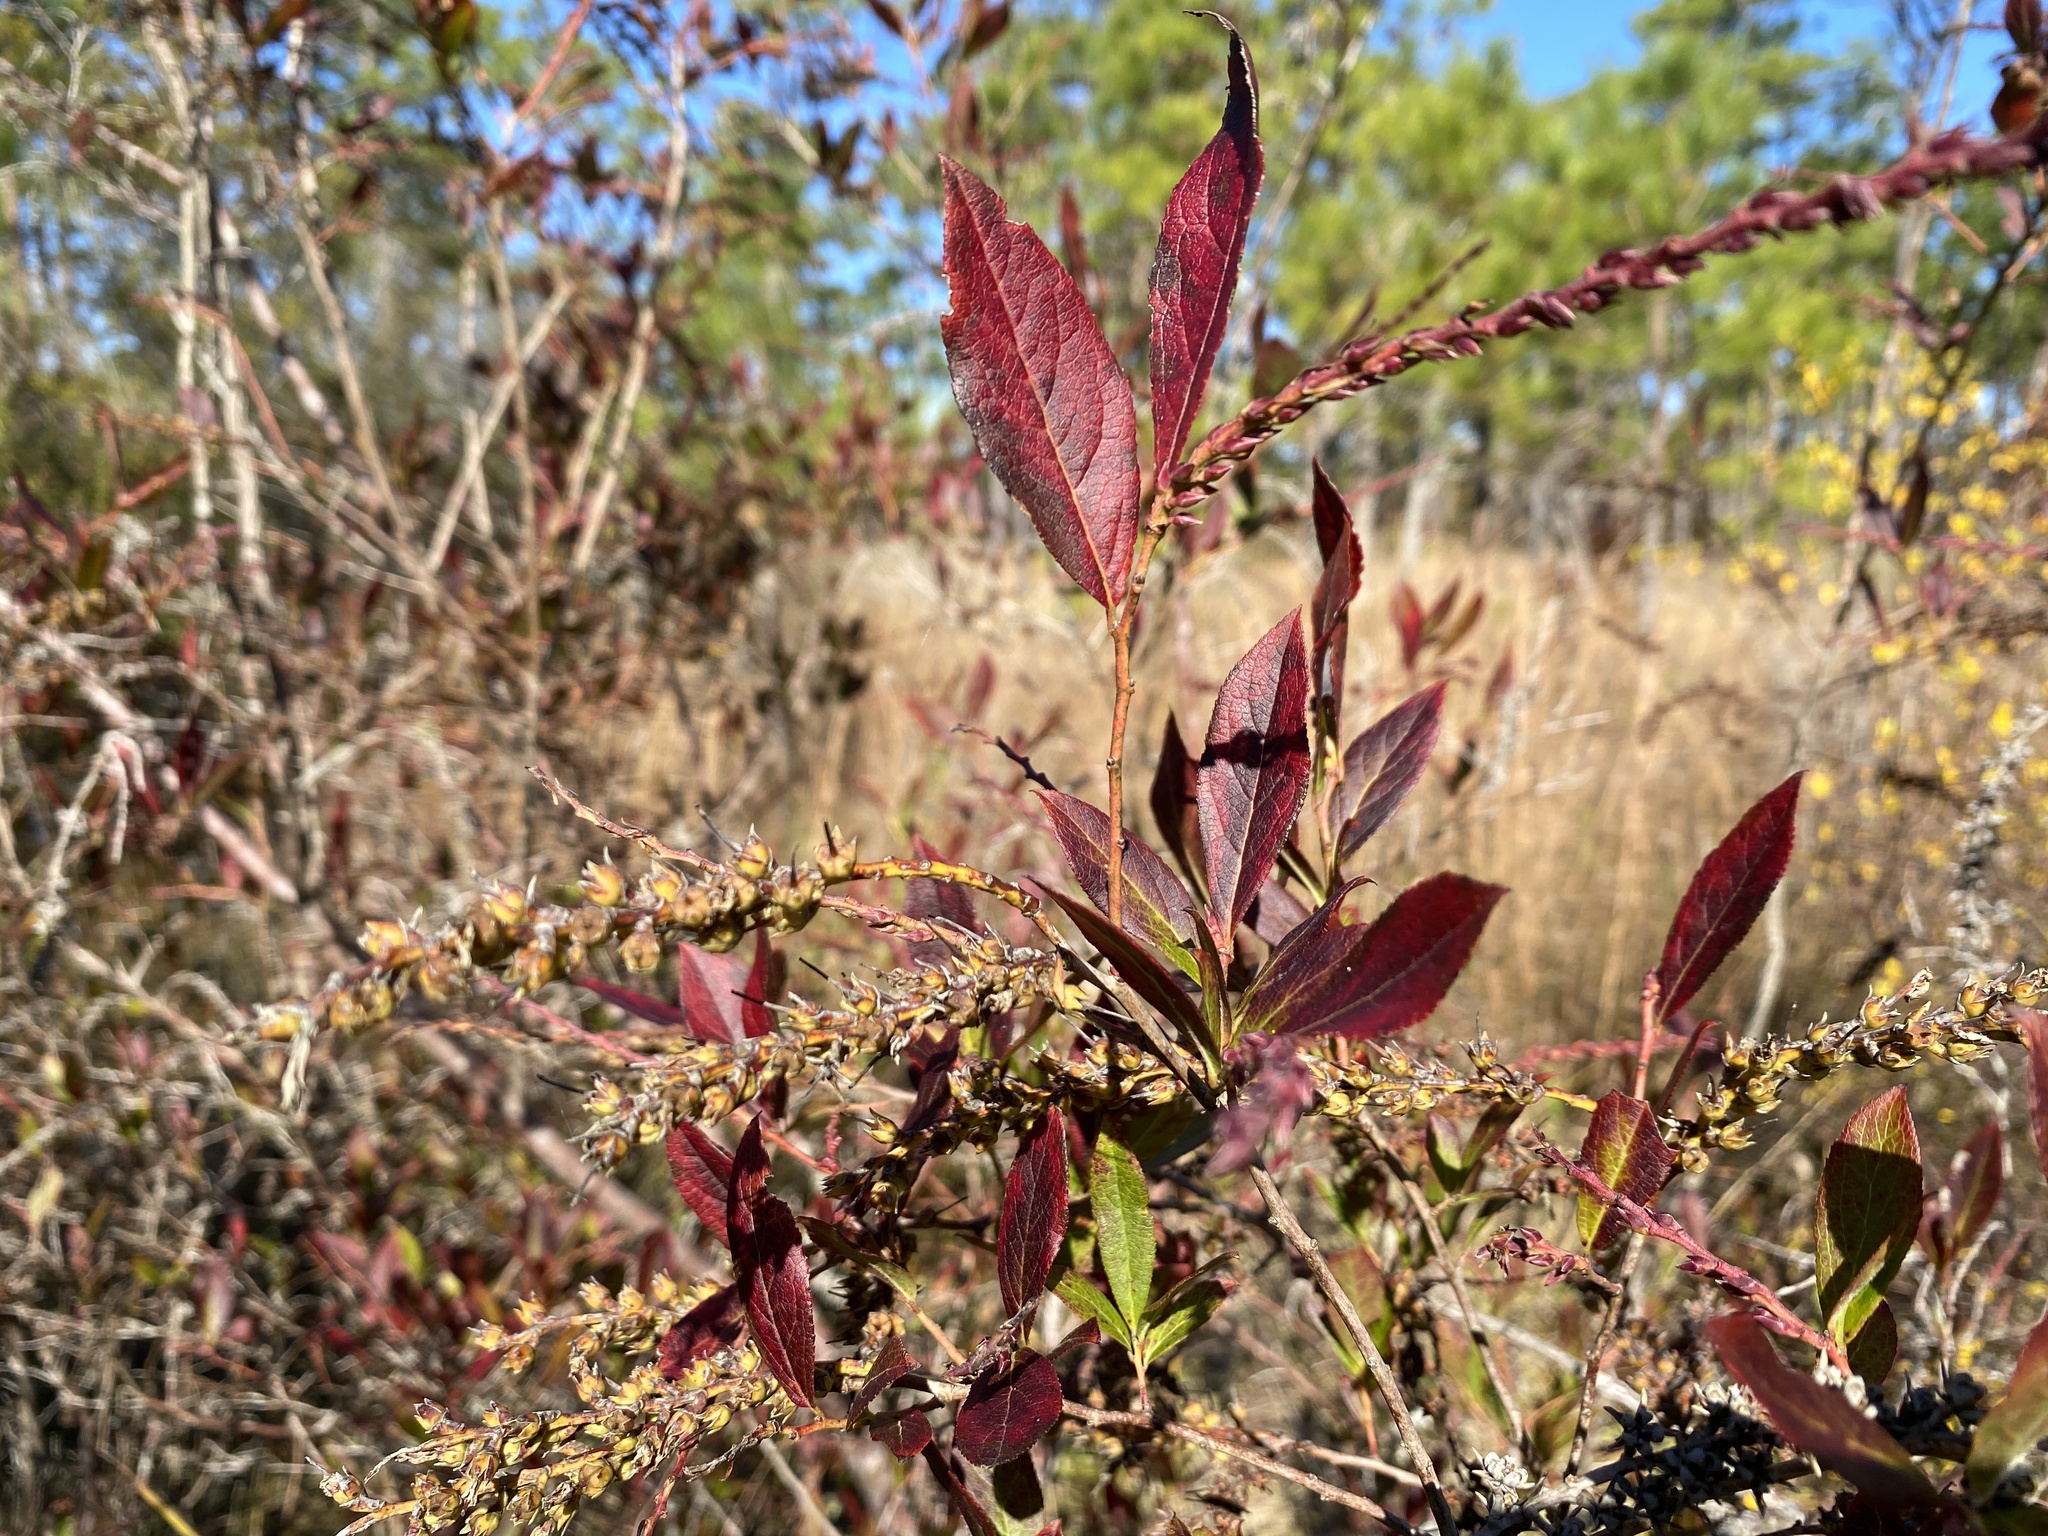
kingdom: Plantae
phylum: Tracheophyta
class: Magnoliopsida
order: Ericales
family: Ericaceae
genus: Eubotrys
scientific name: Eubotrys racemosa
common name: Fetterbush
